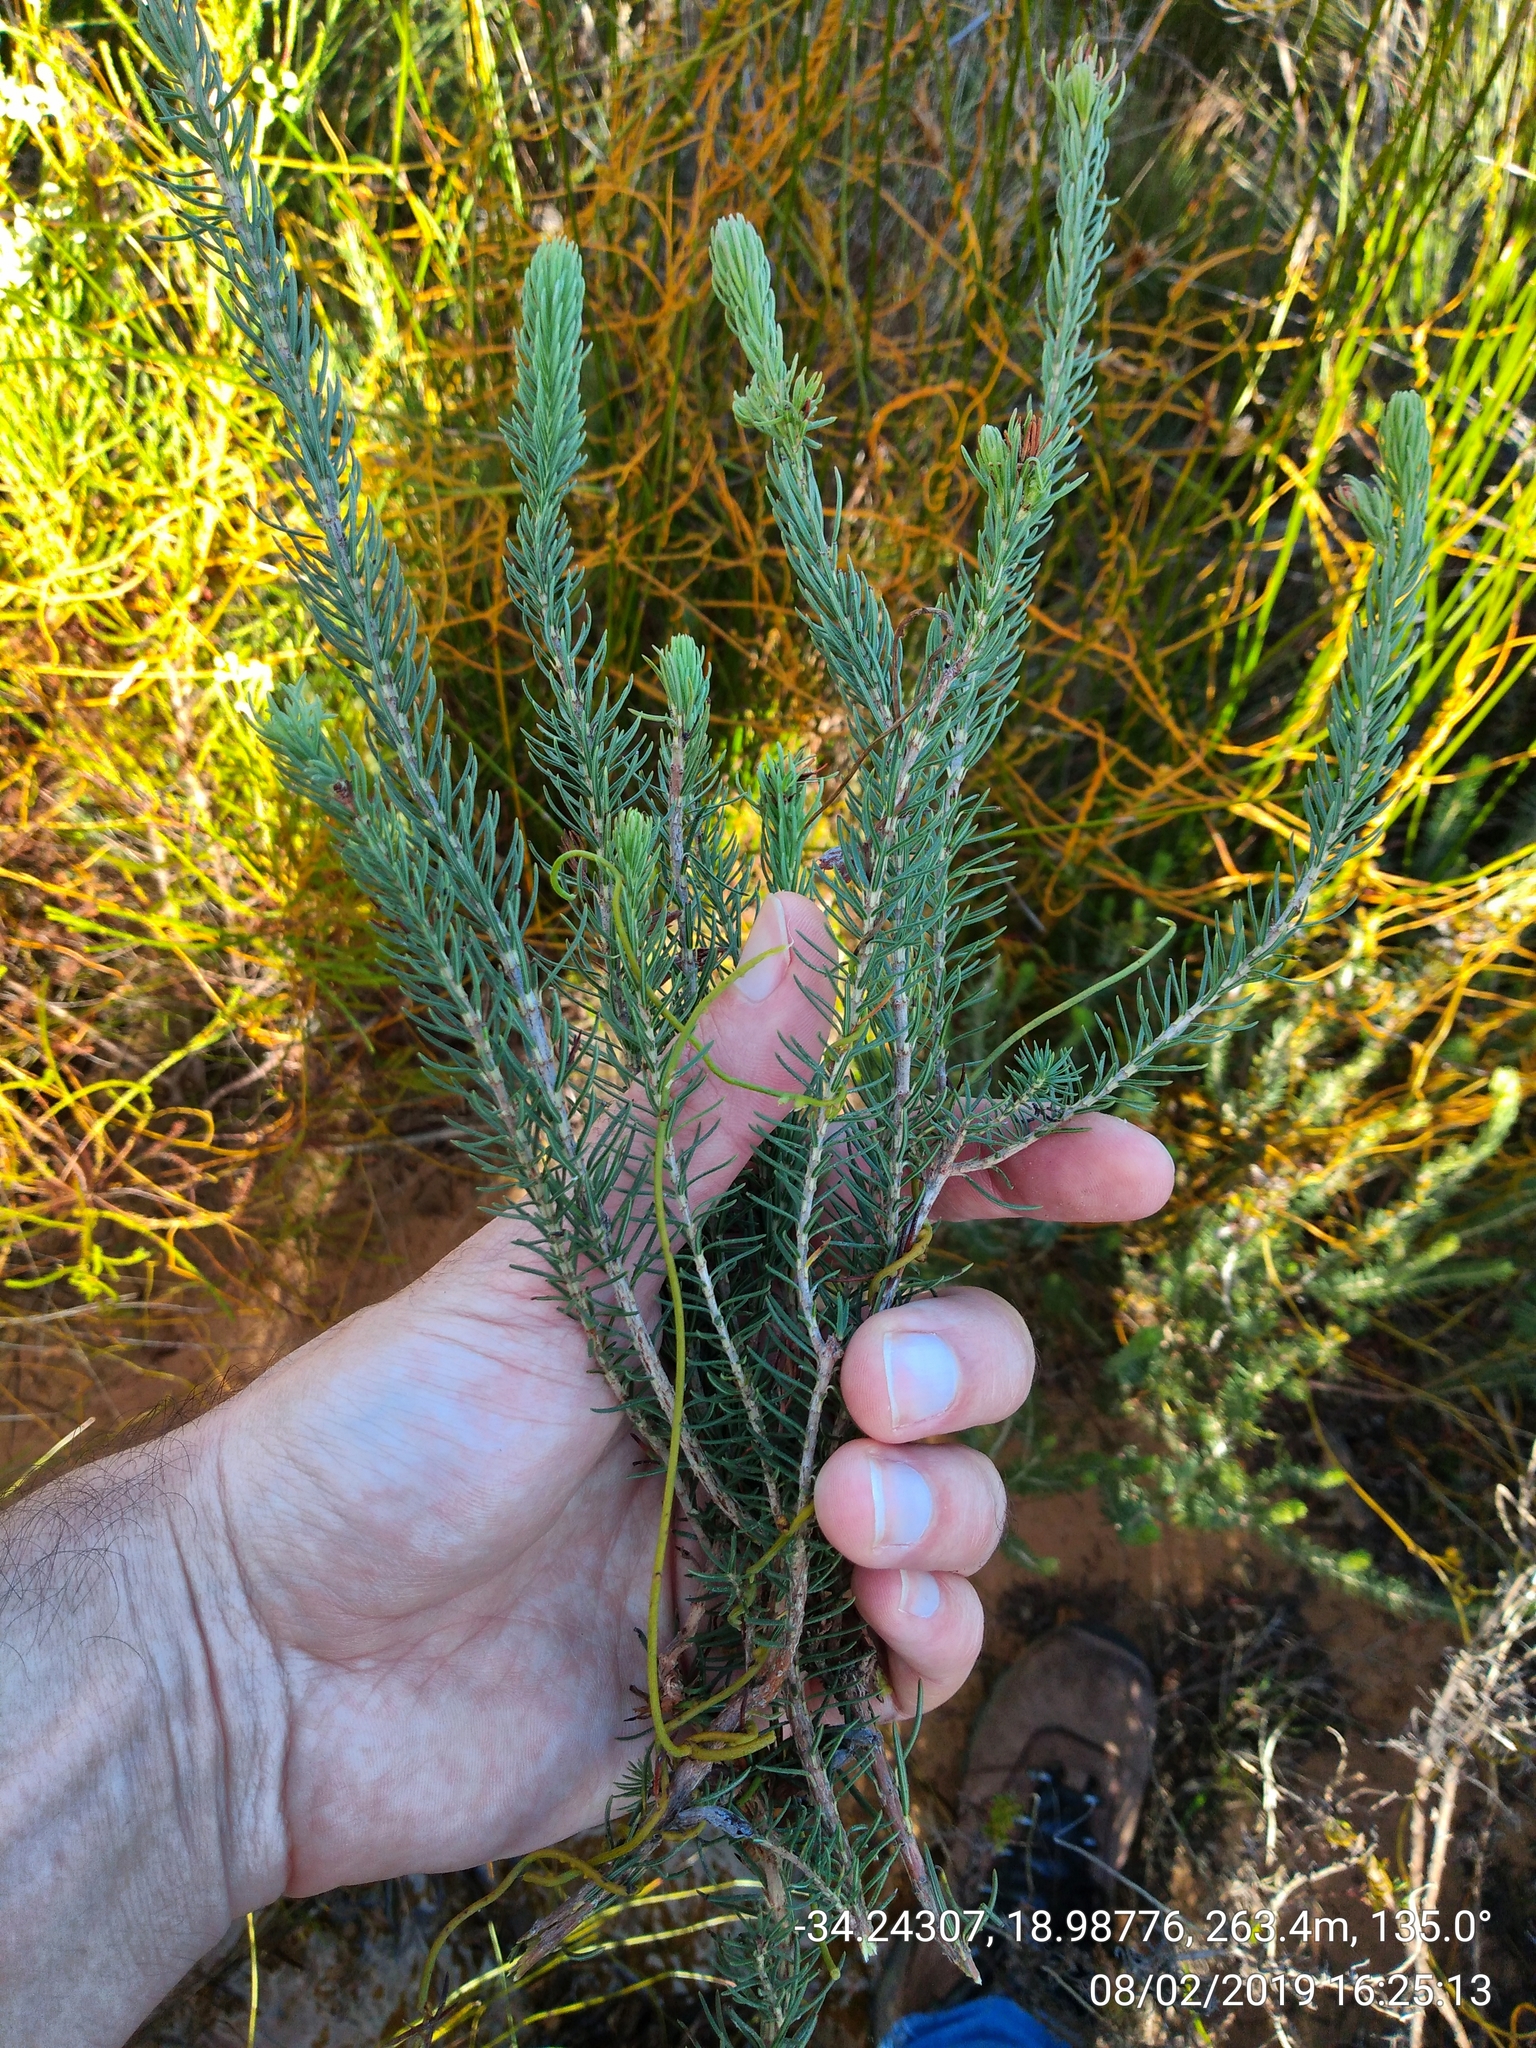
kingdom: Plantae
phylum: Tracheophyta
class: Magnoliopsida
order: Ericales
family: Ericaceae
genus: Erica
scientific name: Erica viscaria
